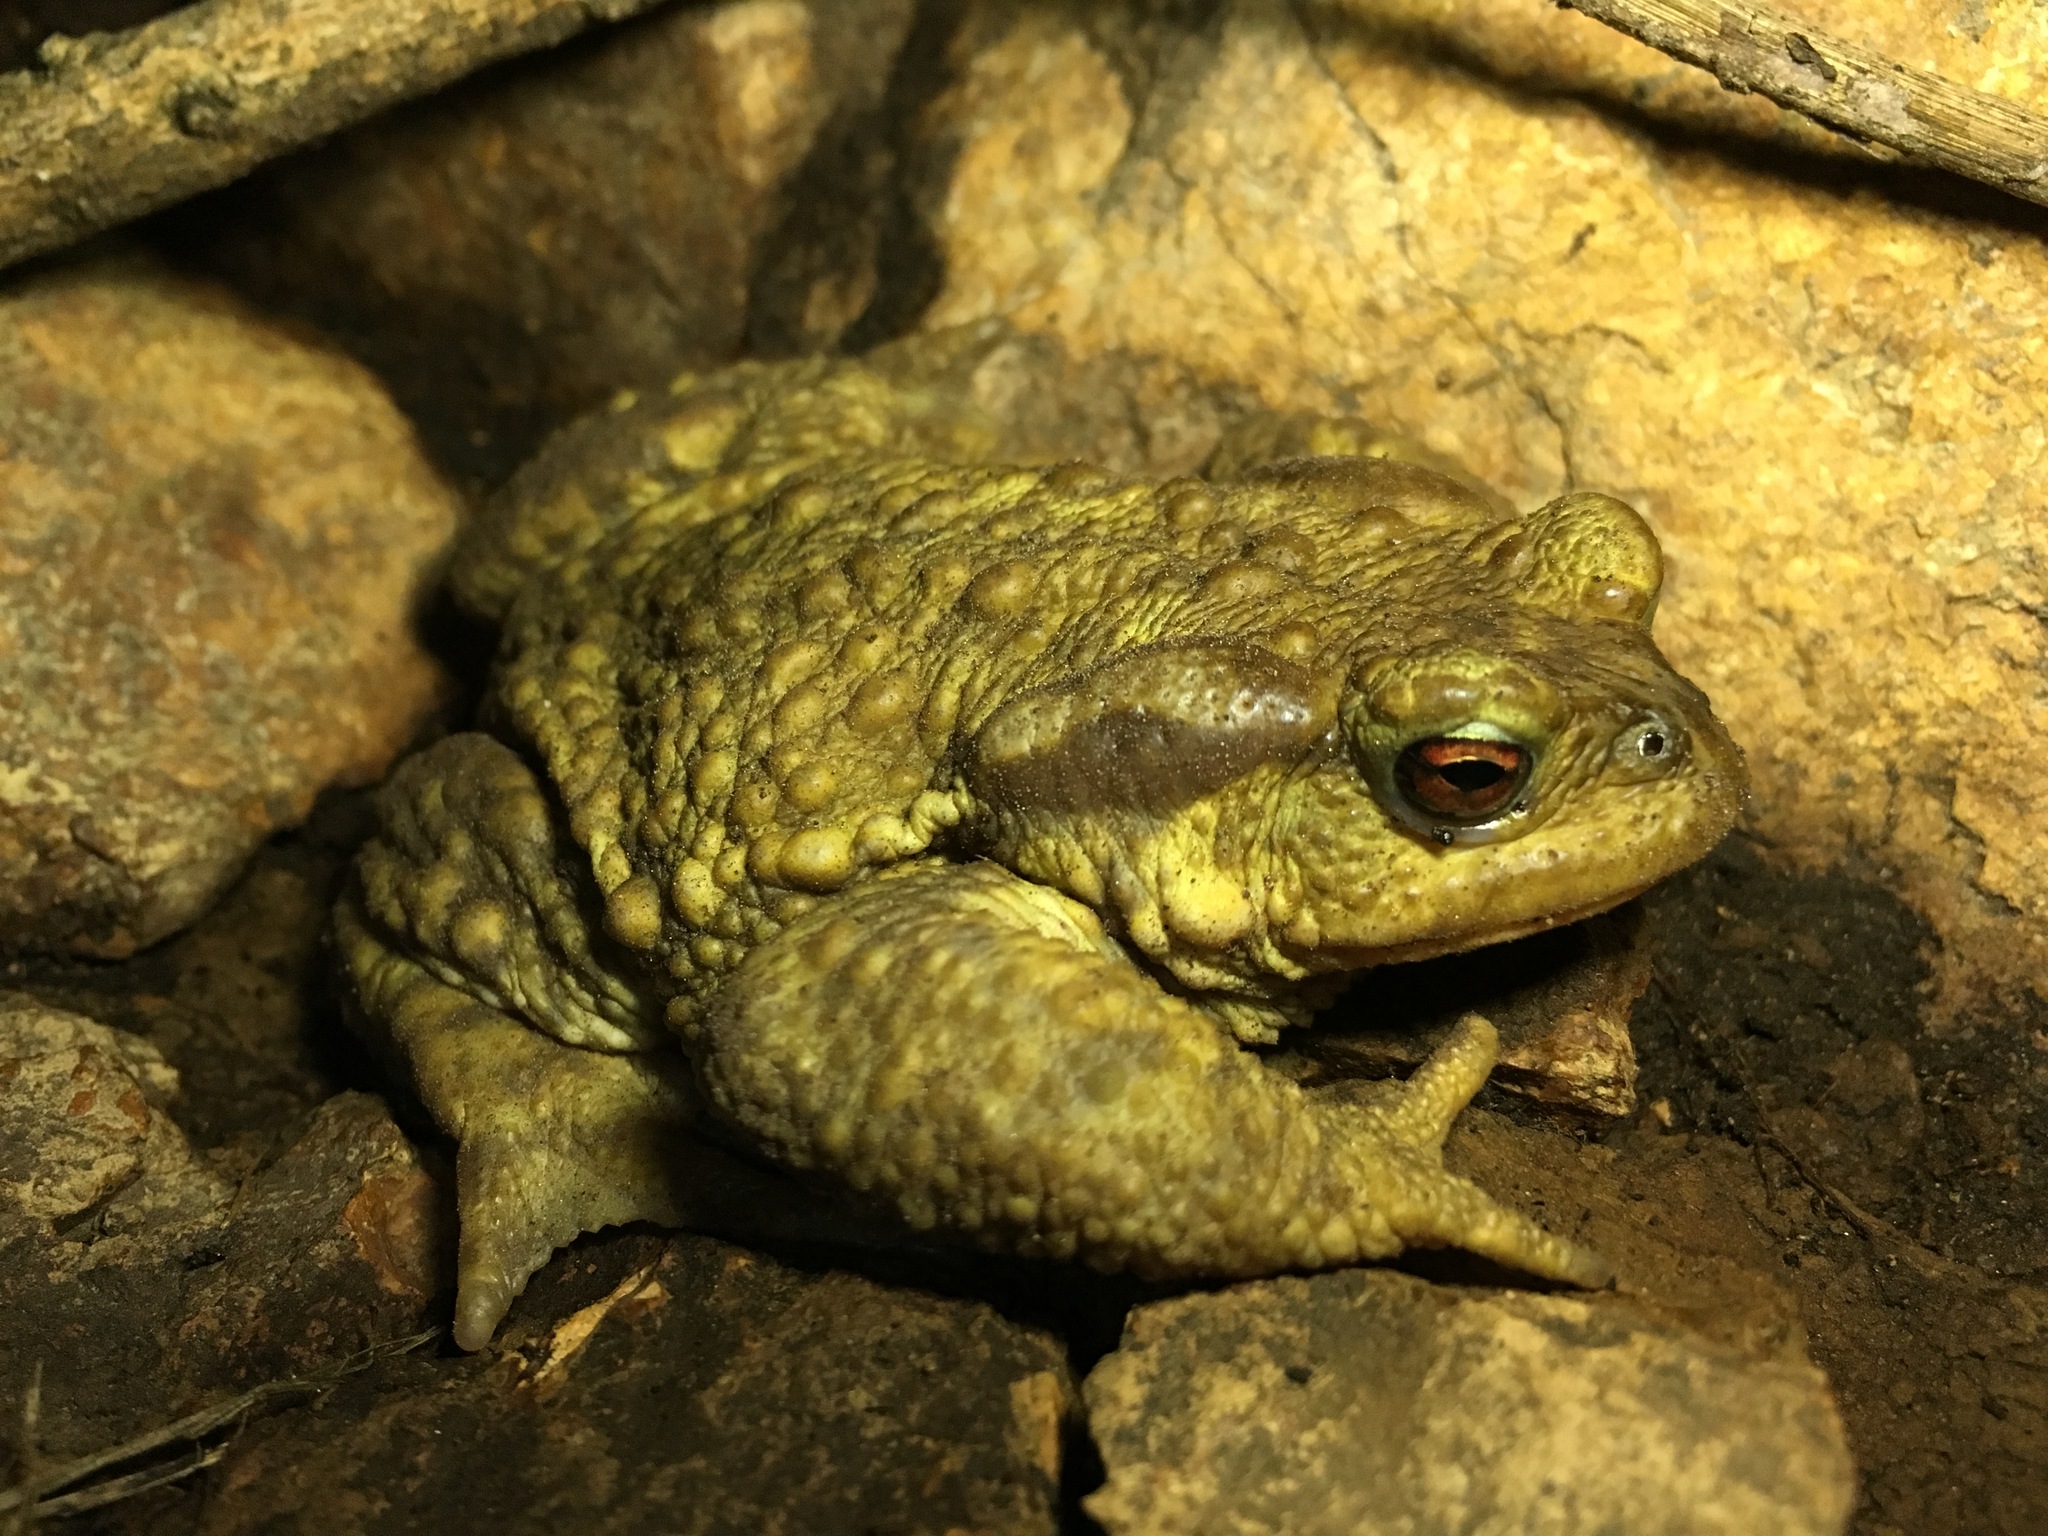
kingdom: Animalia
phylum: Chordata
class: Amphibia
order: Anura
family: Bufonidae
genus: Bufo
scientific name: Bufo spinosus
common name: Western common toad
